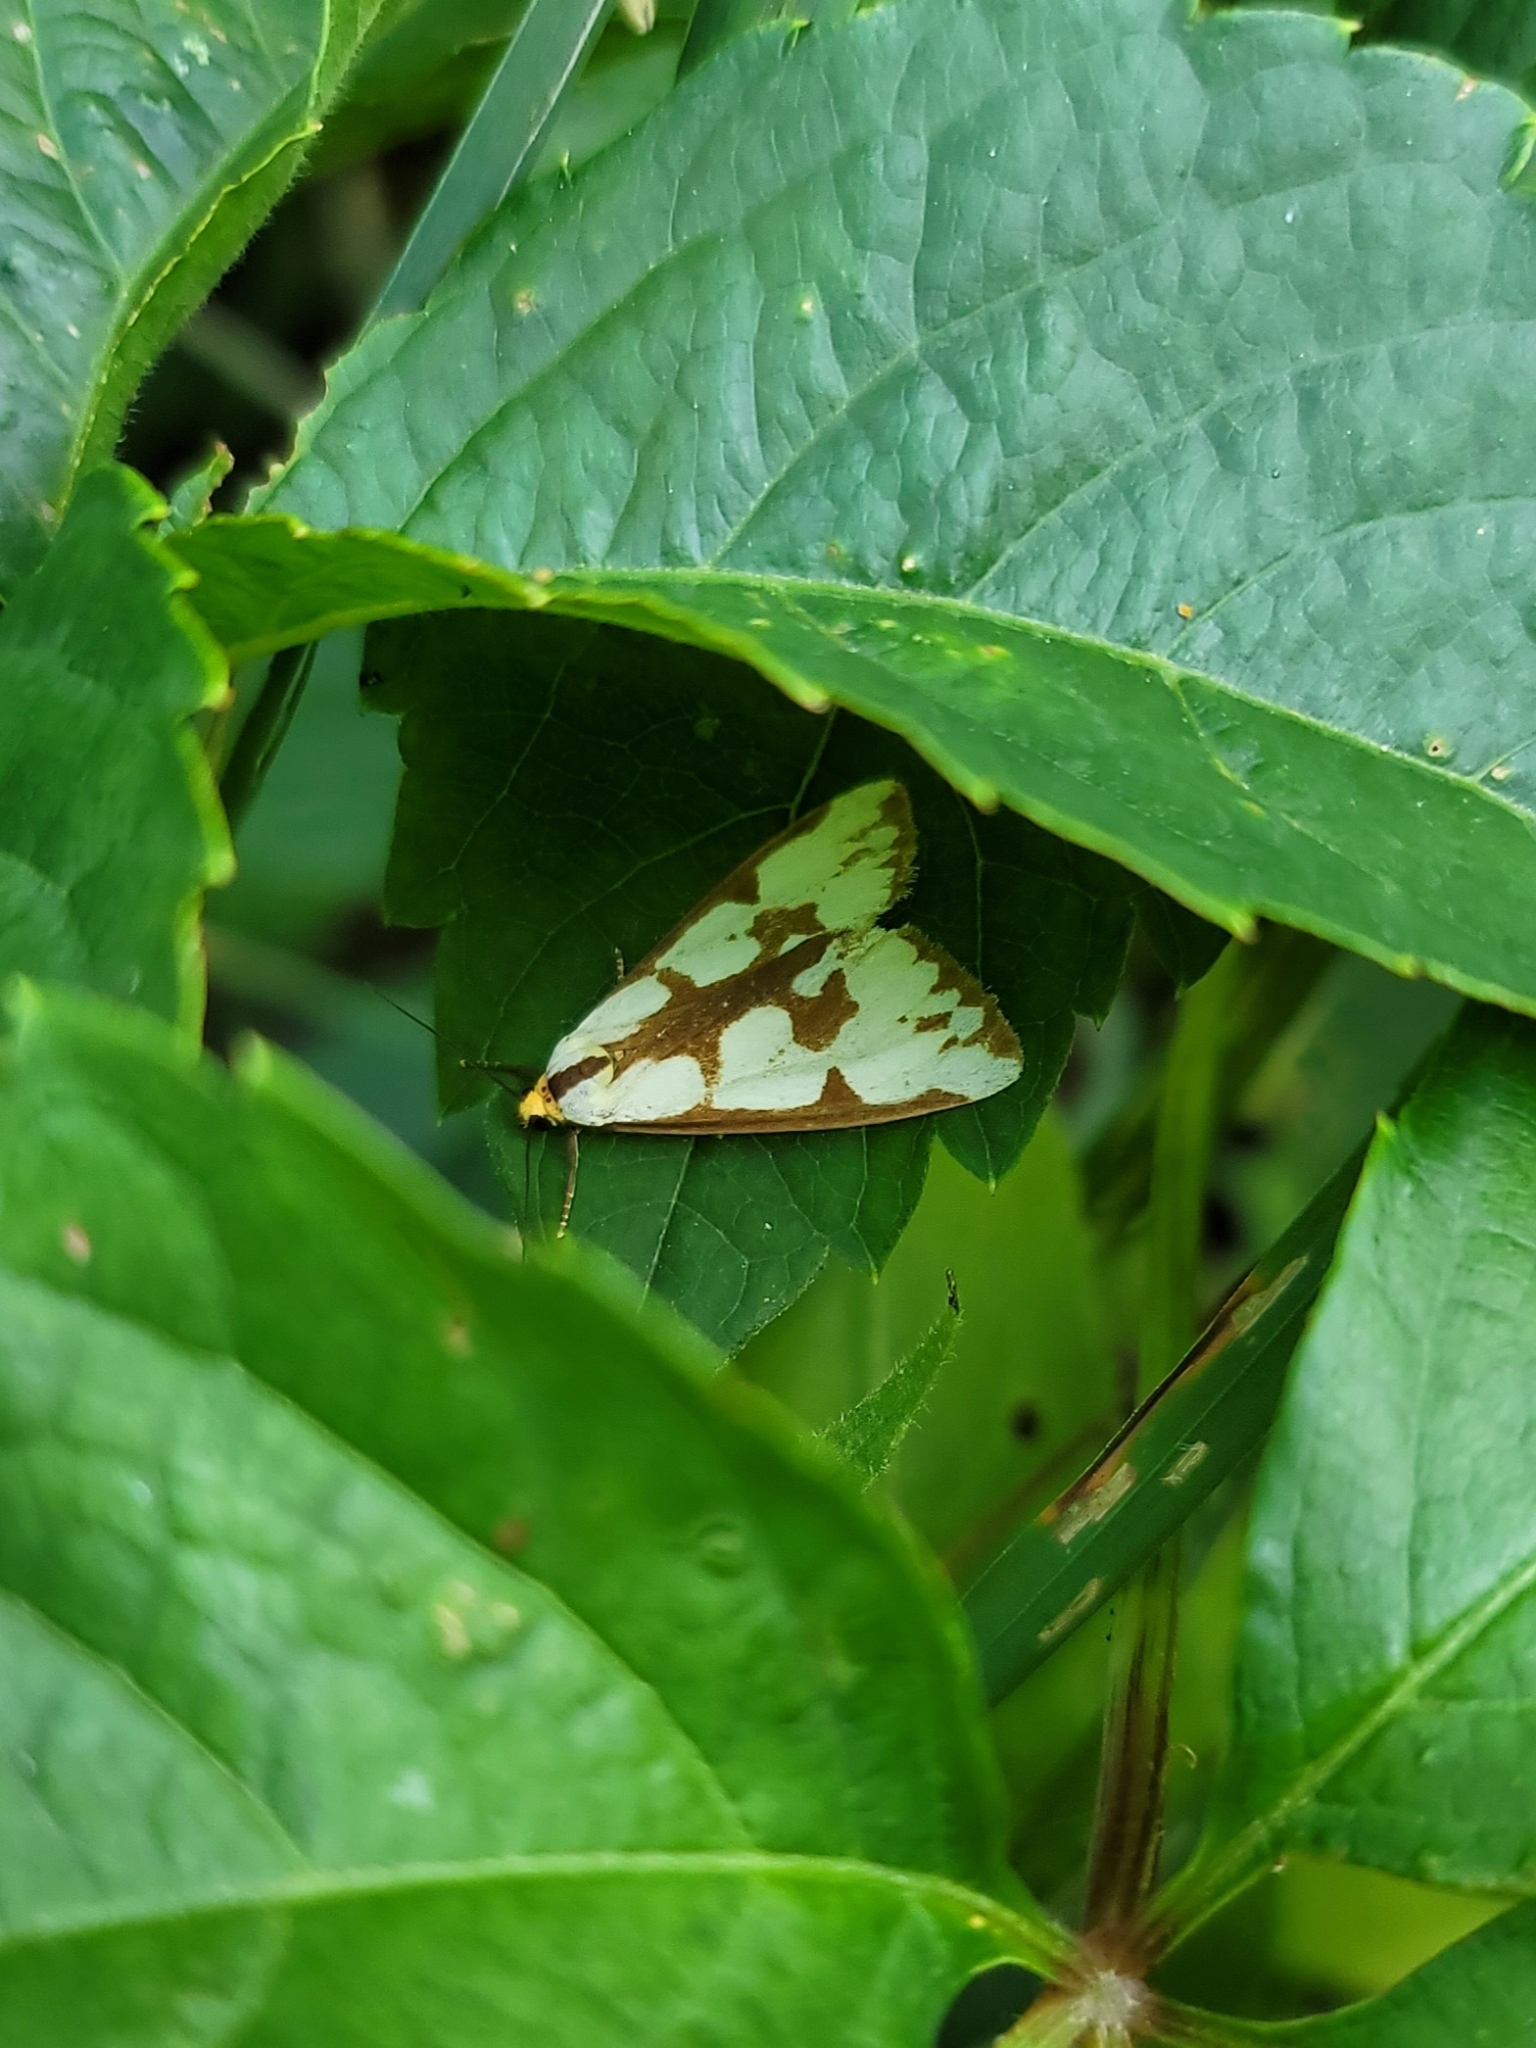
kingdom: Animalia
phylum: Arthropoda
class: Insecta
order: Lepidoptera
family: Erebidae
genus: Haploa
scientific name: Haploa confusa
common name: Confused haploa moth
